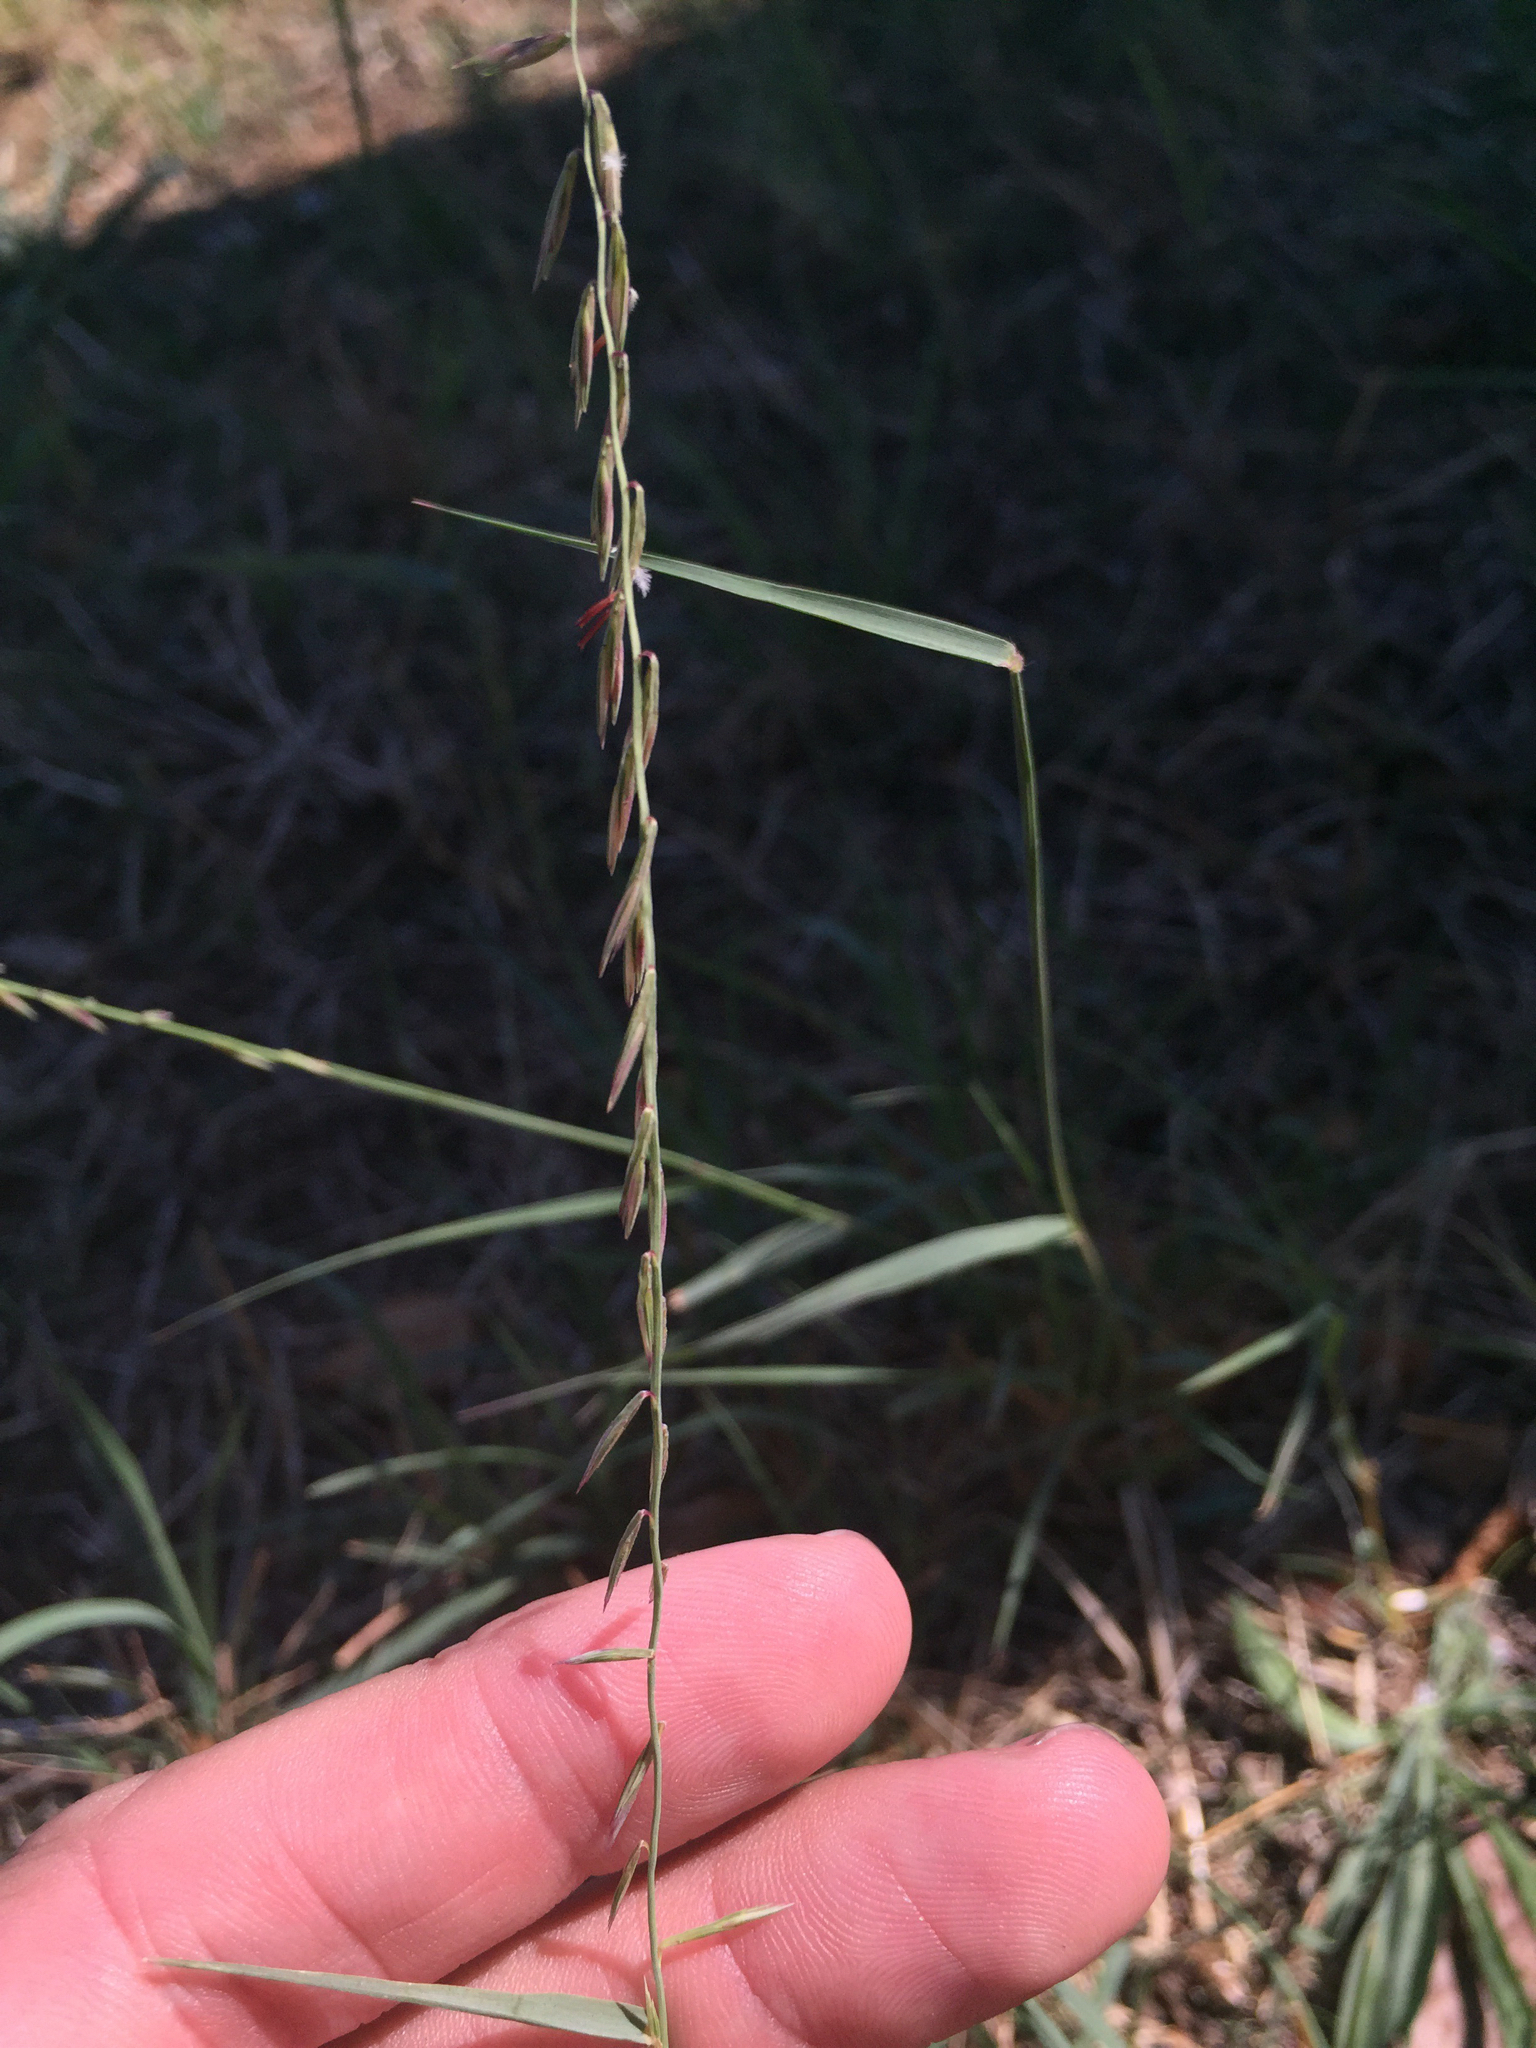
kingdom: Plantae
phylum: Tracheophyta
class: Liliopsida
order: Poales
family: Poaceae
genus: Bouteloua
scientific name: Bouteloua curtipendula
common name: Side-oats grama
